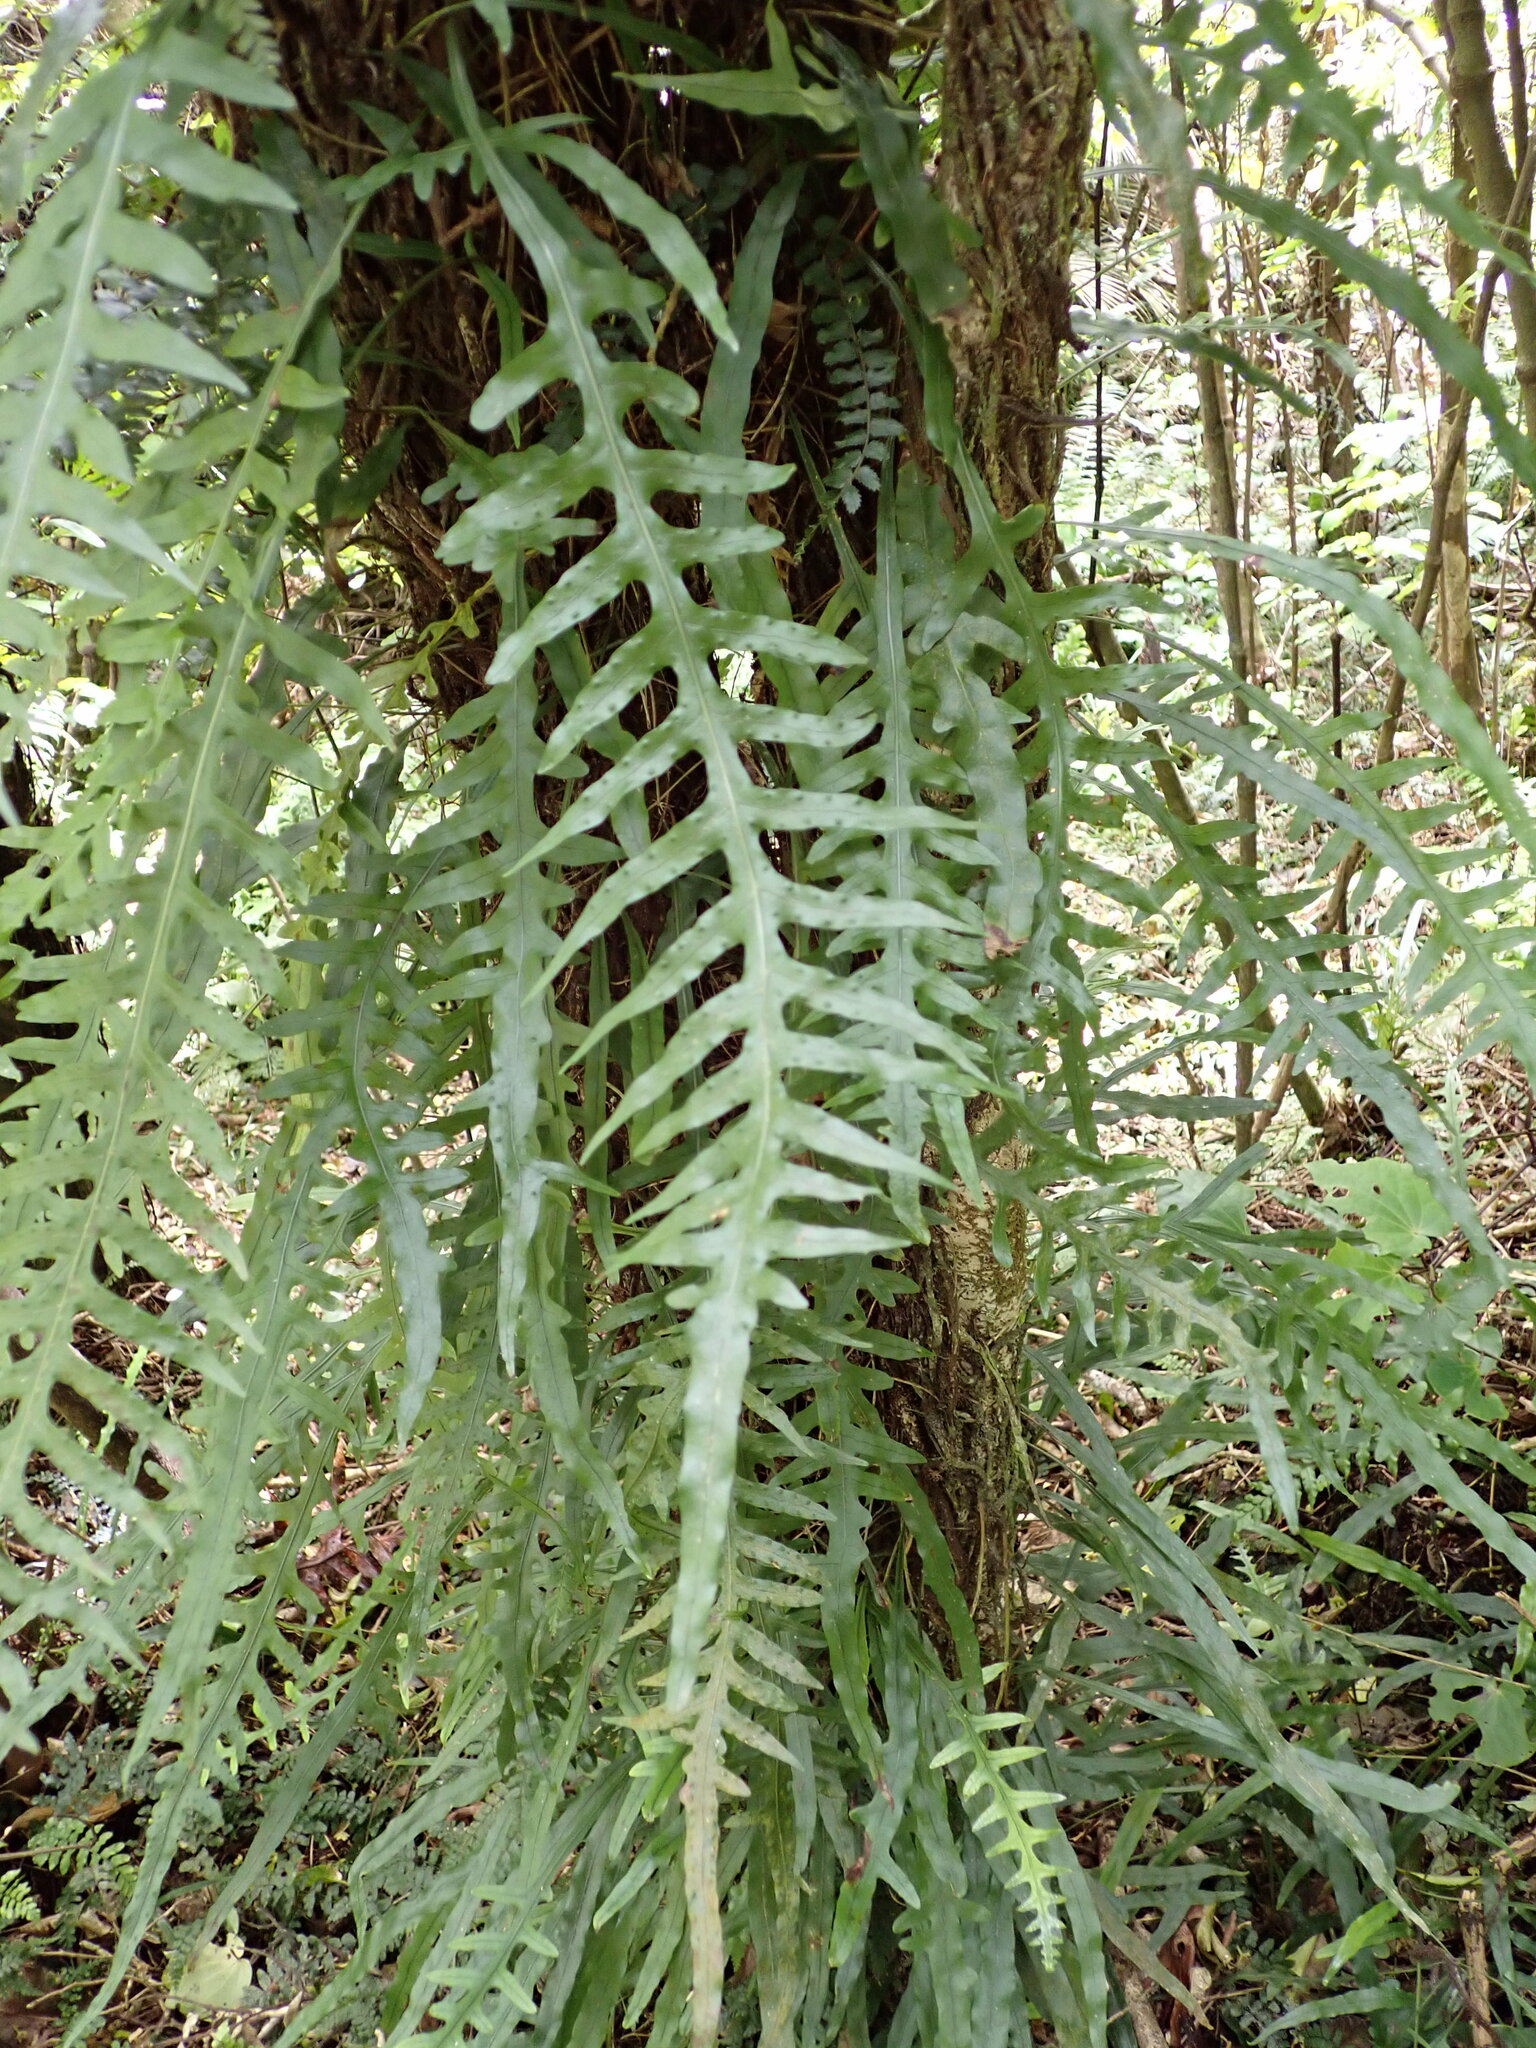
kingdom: Plantae
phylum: Tracheophyta
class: Polypodiopsida
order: Polypodiales
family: Polypodiaceae
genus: Lecanopteris
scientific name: Lecanopteris scandens
